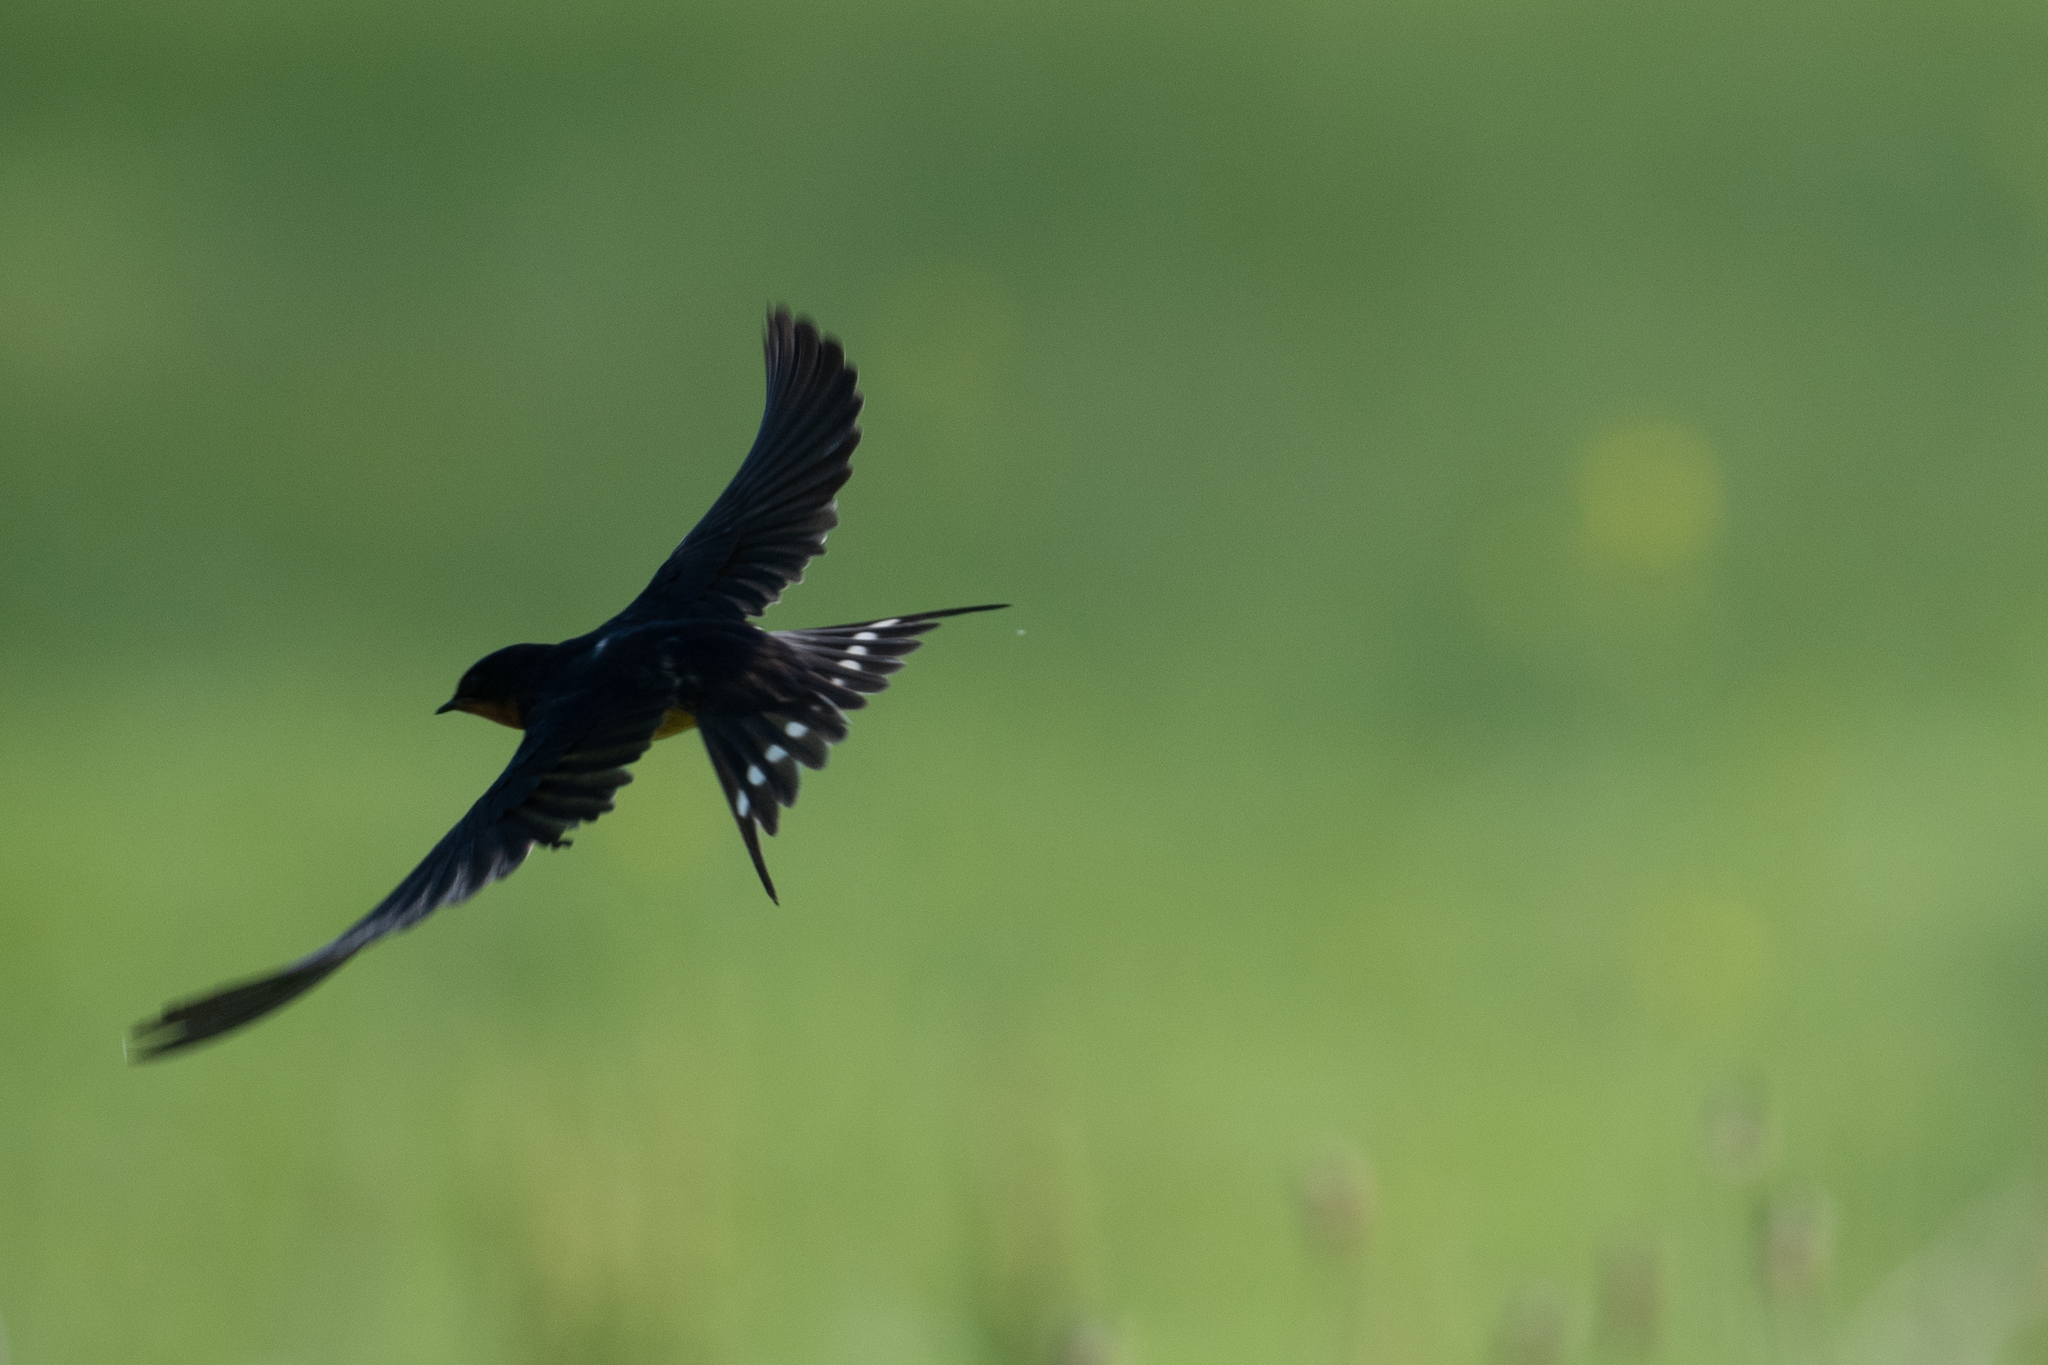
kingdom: Animalia
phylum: Chordata
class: Aves
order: Passeriformes
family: Hirundinidae
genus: Hirundo
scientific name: Hirundo rustica
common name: Barn swallow
